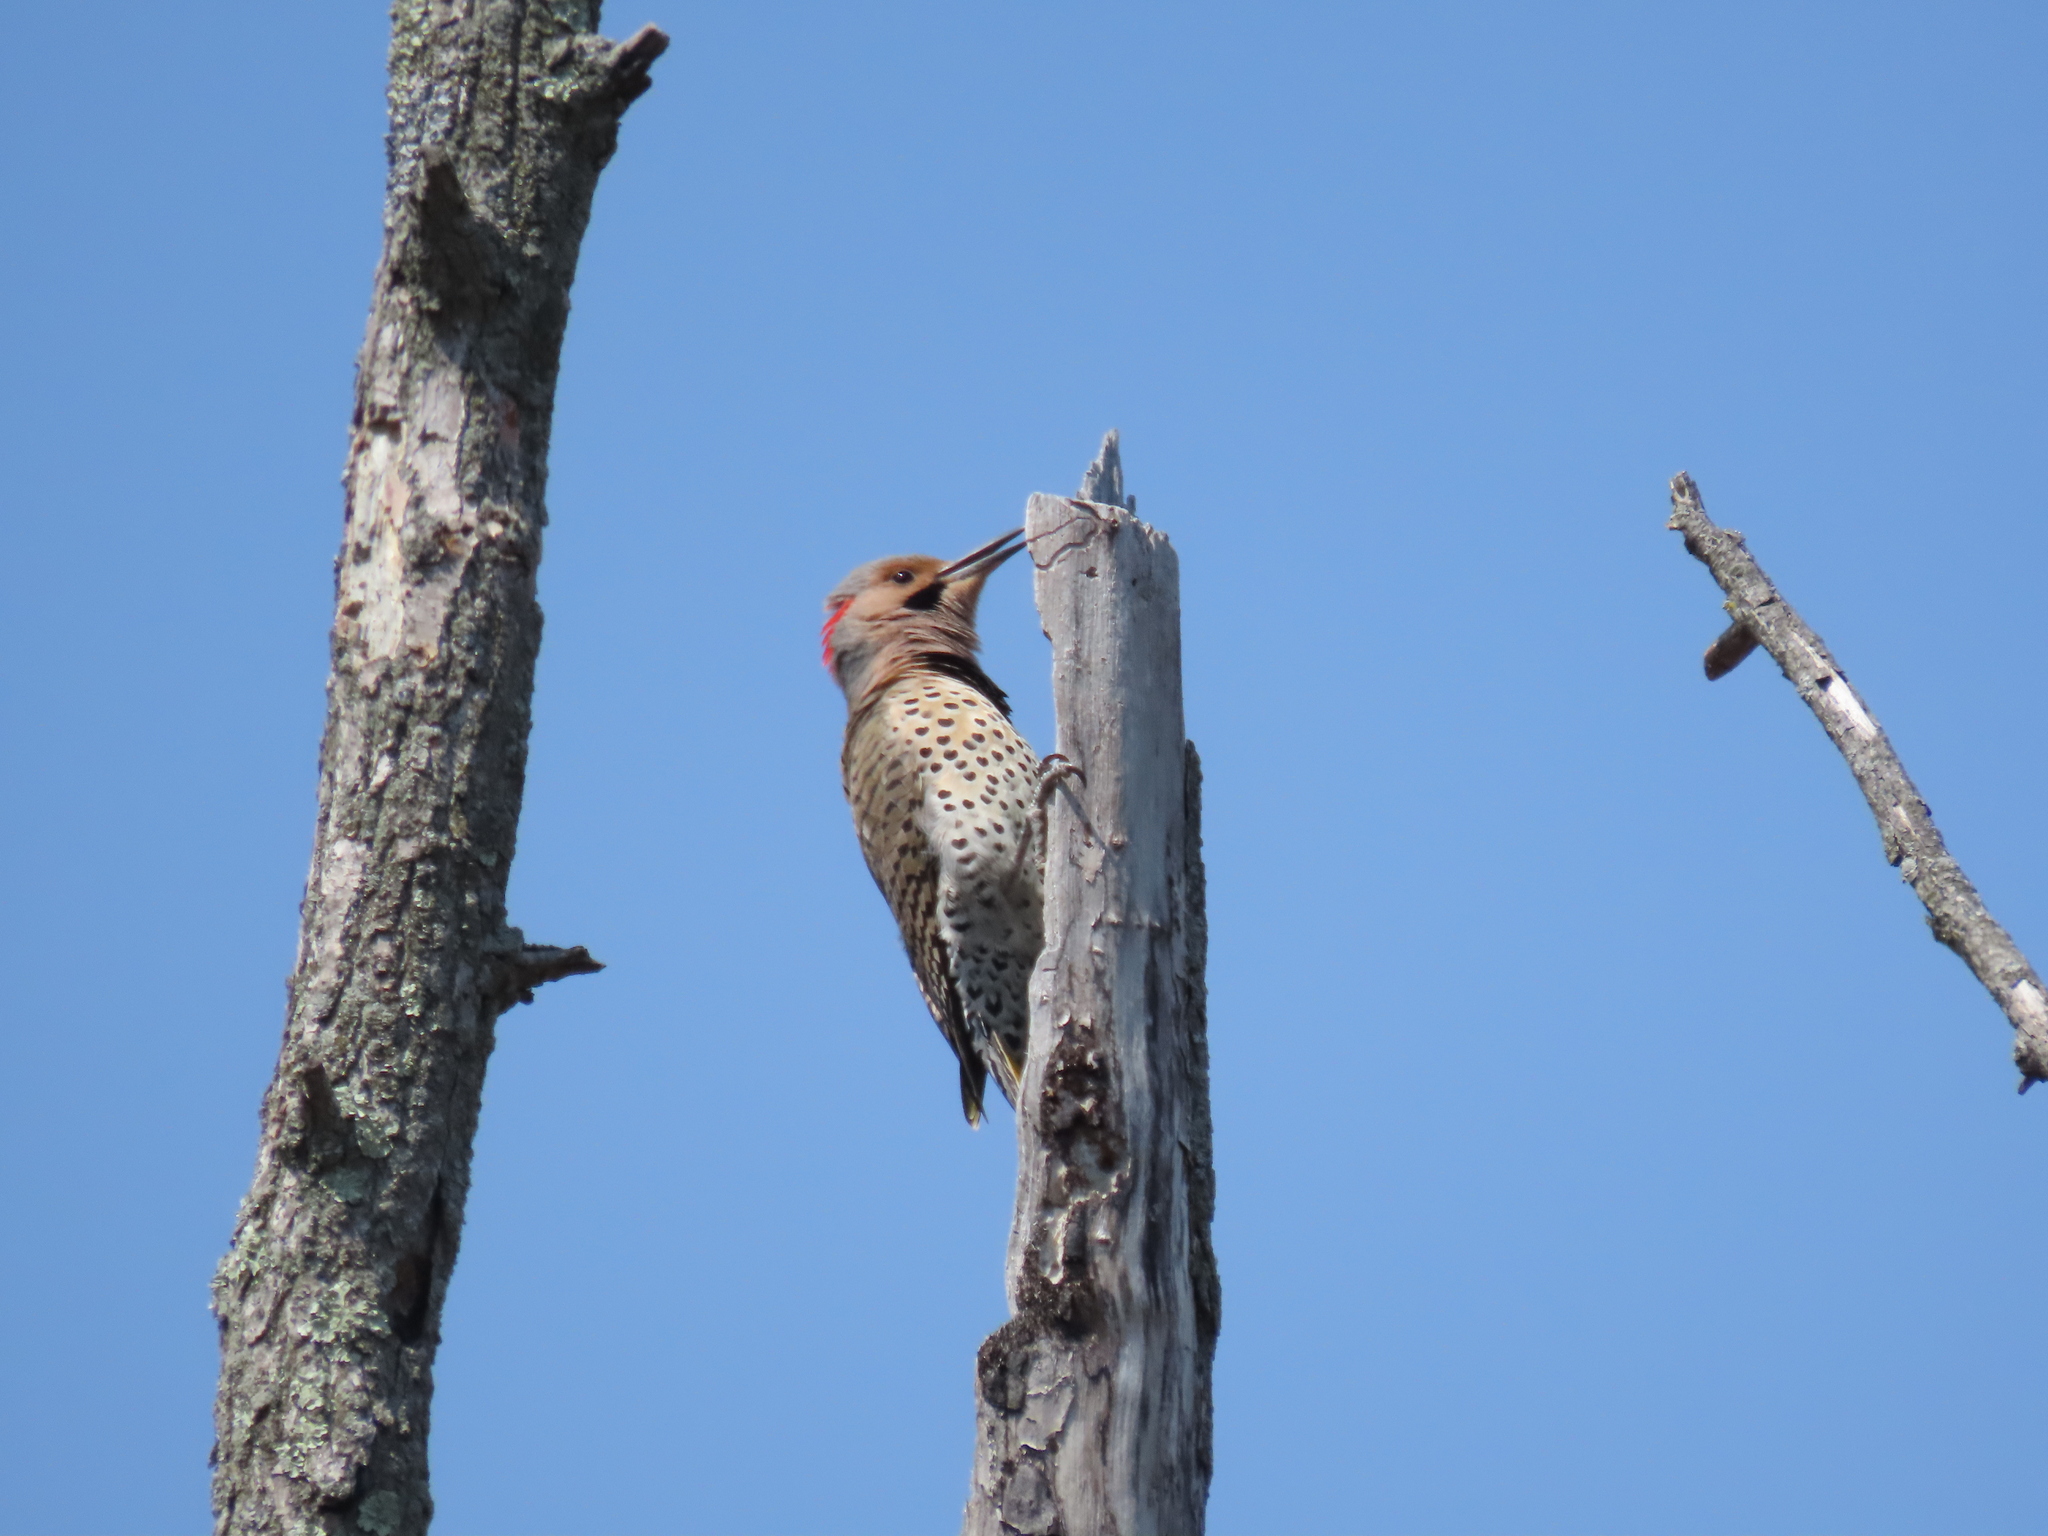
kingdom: Animalia
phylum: Chordata
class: Aves
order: Piciformes
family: Picidae
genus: Colaptes
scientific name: Colaptes auratus
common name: Northern flicker
